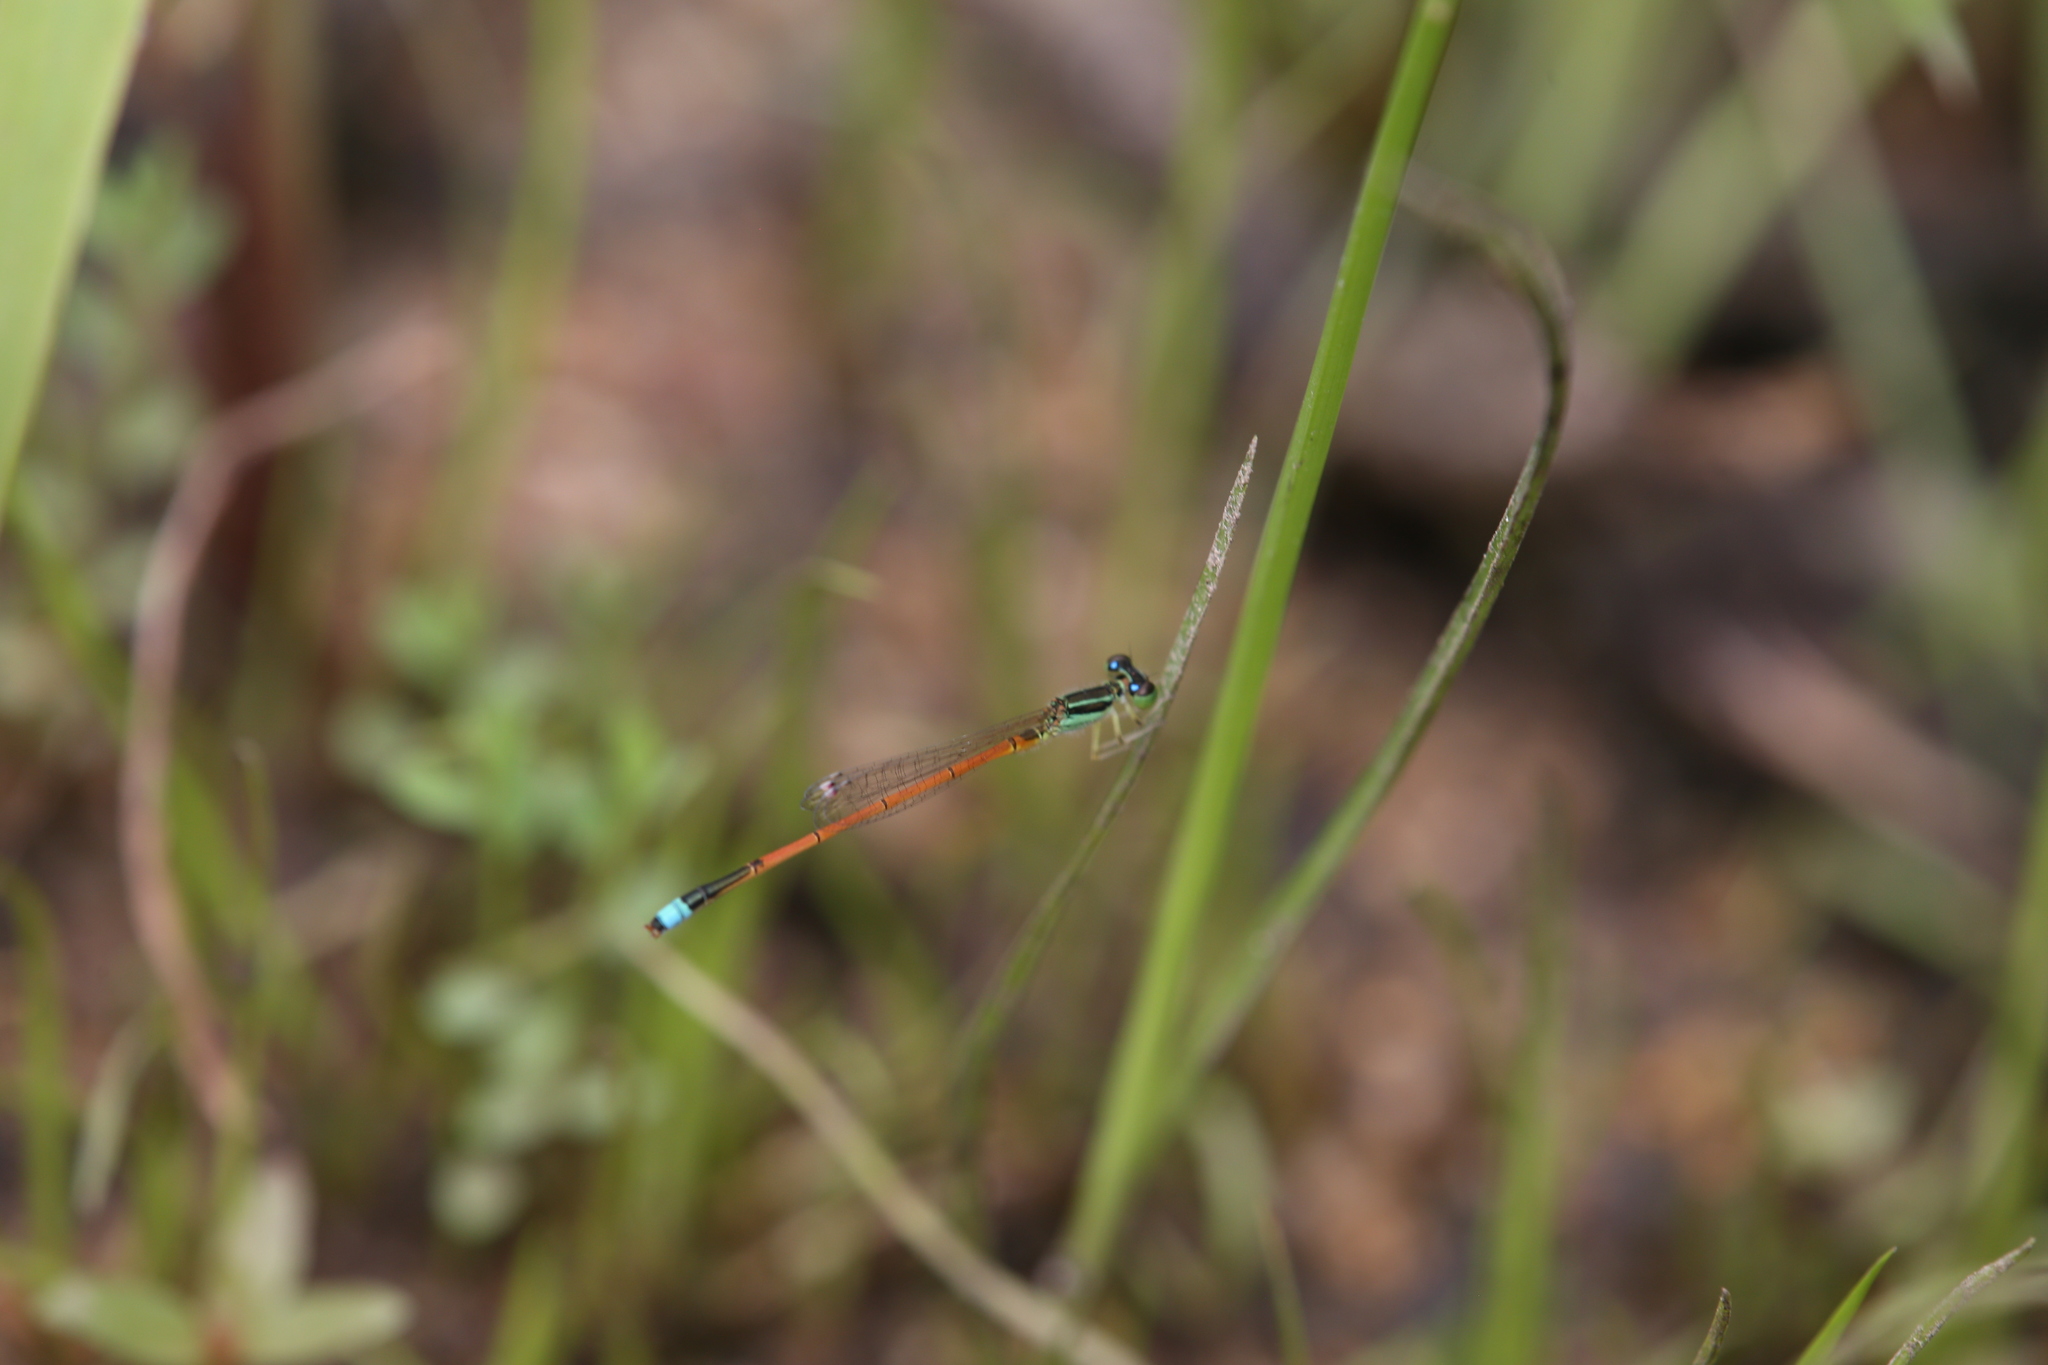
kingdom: Animalia
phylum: Arthropoda
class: Insecta
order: Odonata
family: Coenagrionidae
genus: Ischnura
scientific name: Ischnura aurora
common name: Gossamer damselfly
